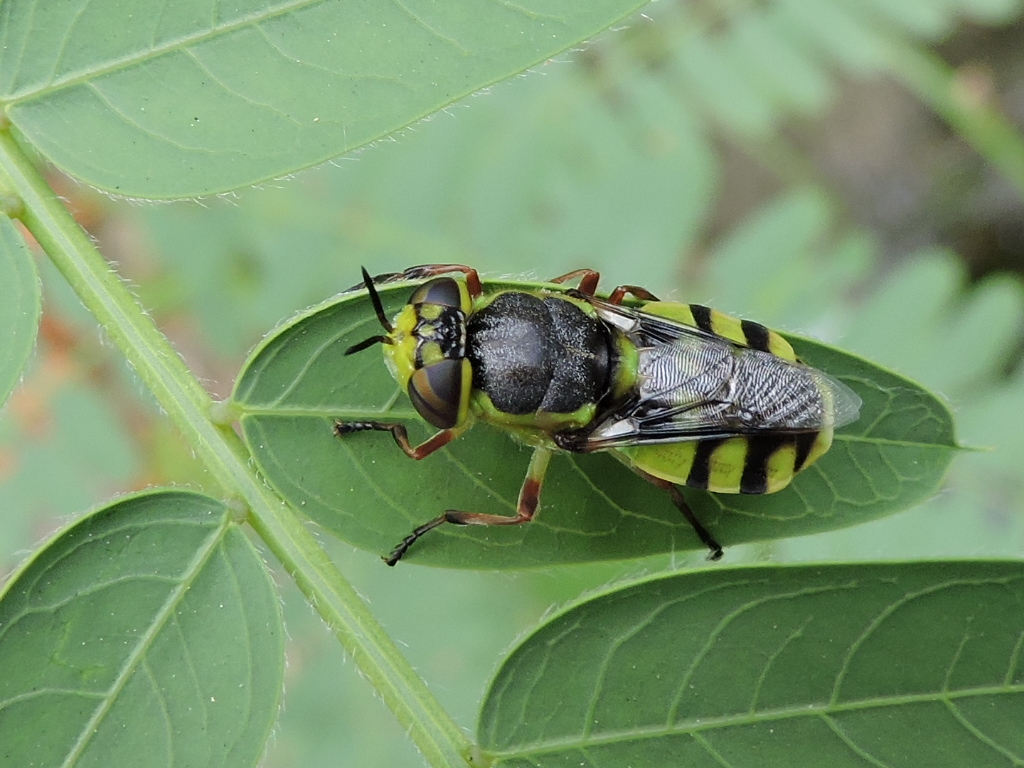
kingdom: Animalia
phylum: Arthropoda
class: Insecta
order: Diptera
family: Stratiomyidae
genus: Hedriodiscus
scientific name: Hedriodiscus truquii
